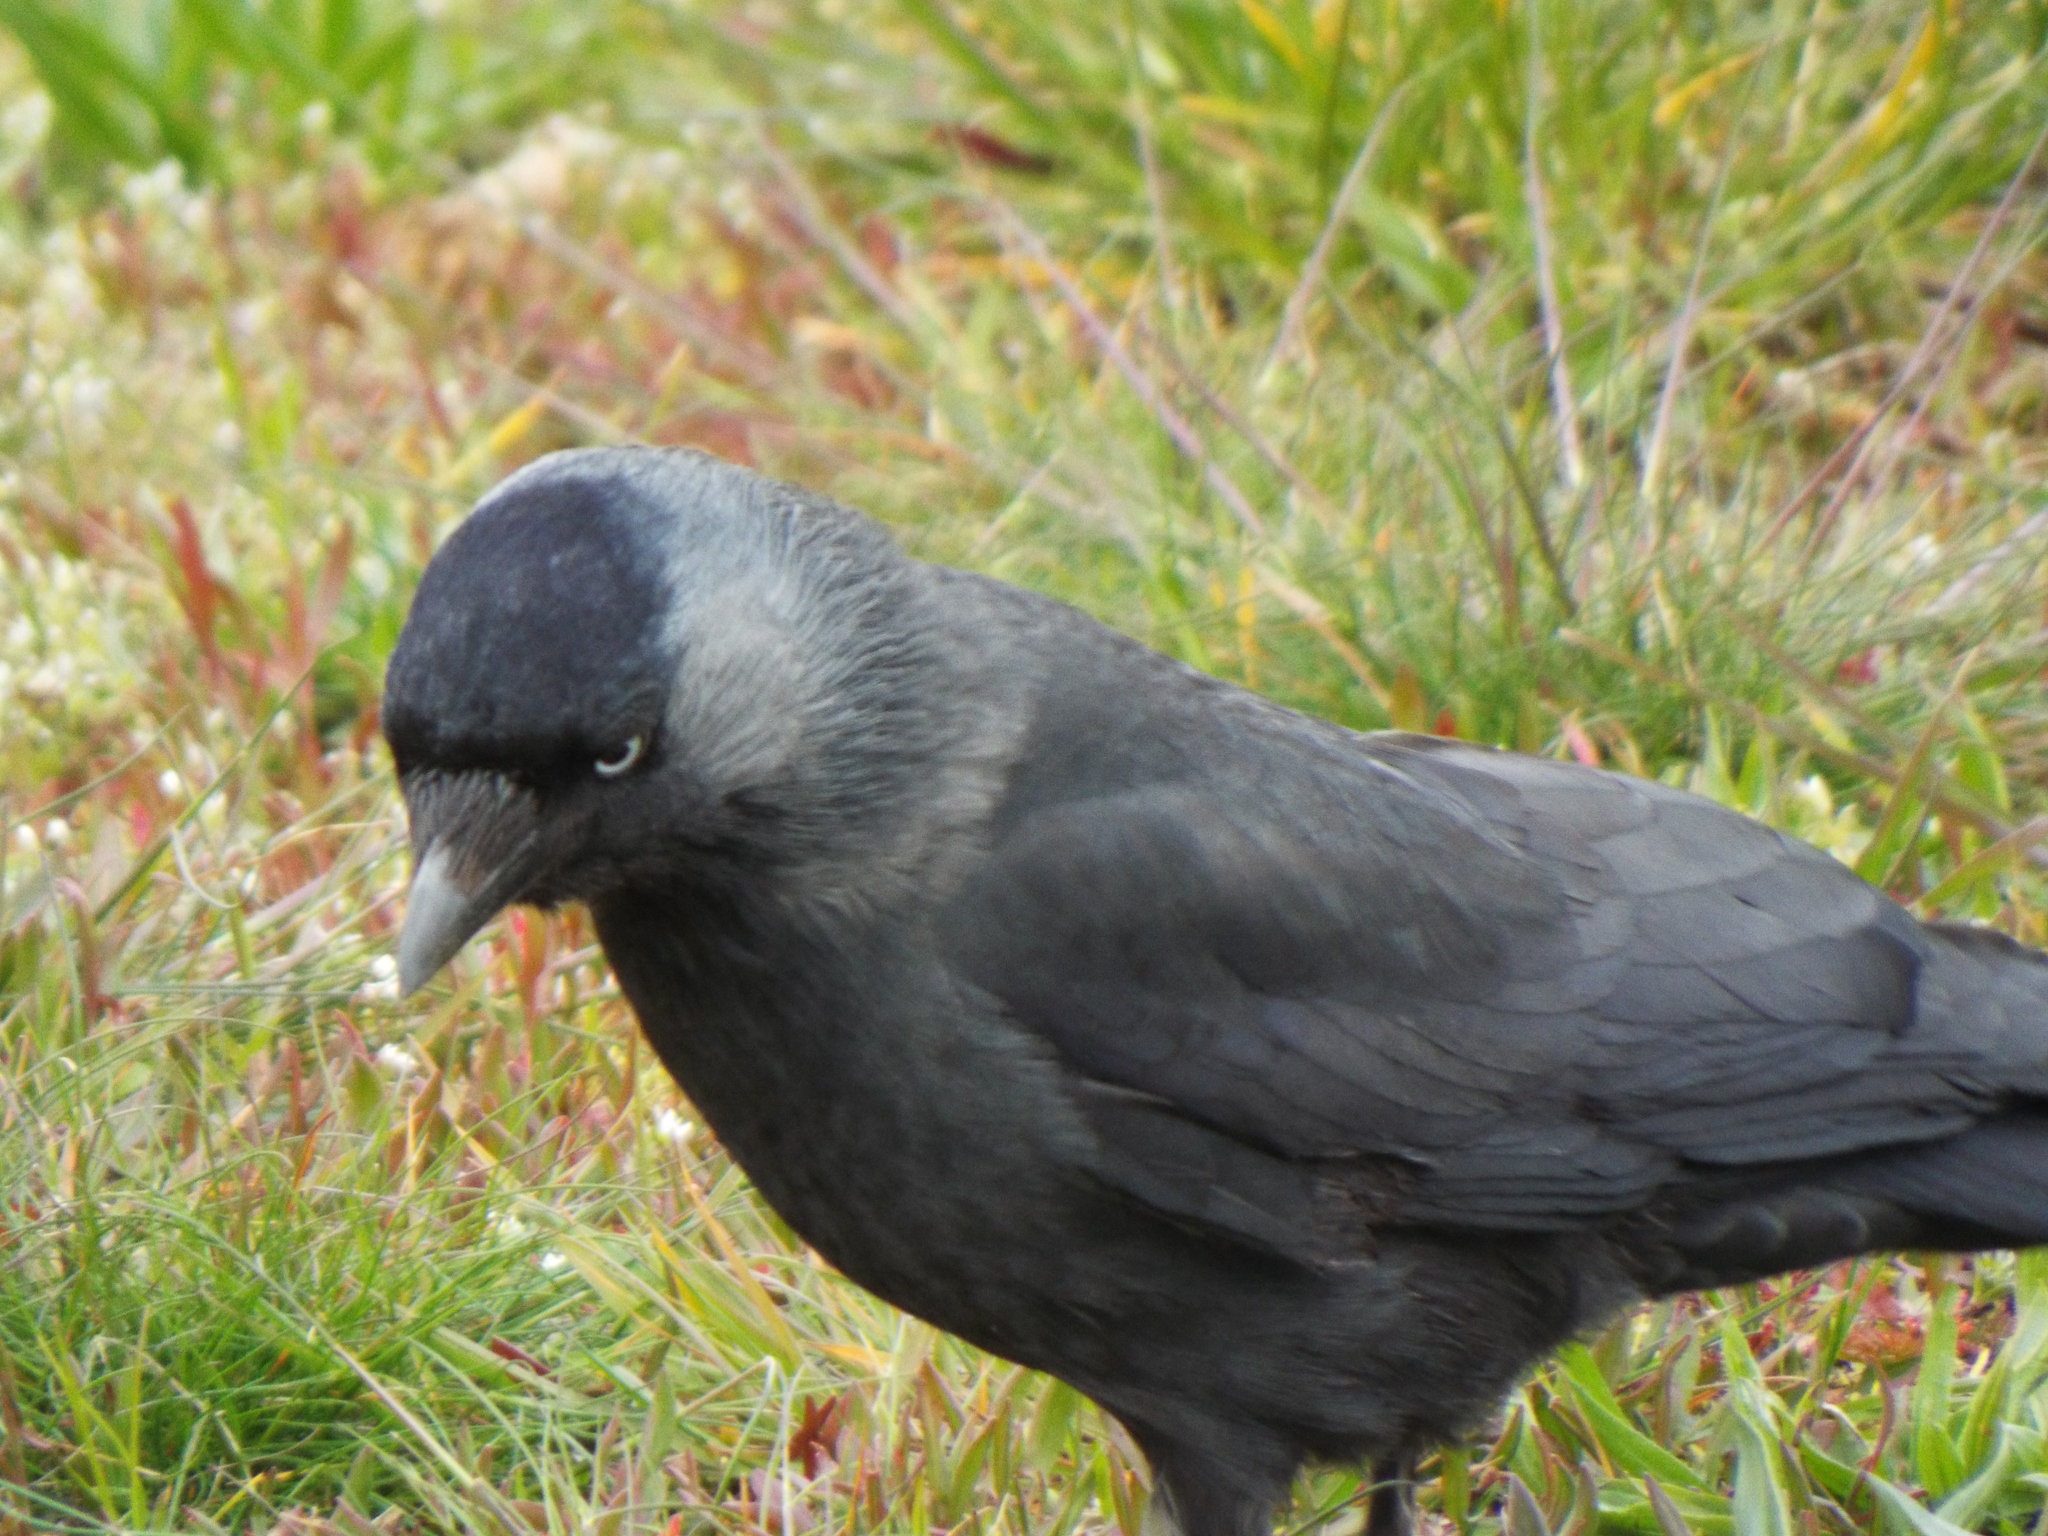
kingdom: Animalia
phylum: Chordata
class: Aves
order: Passeriformes
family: Corvidae
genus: Coloeus
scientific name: Coloeus monedula
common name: Western jackdaw
